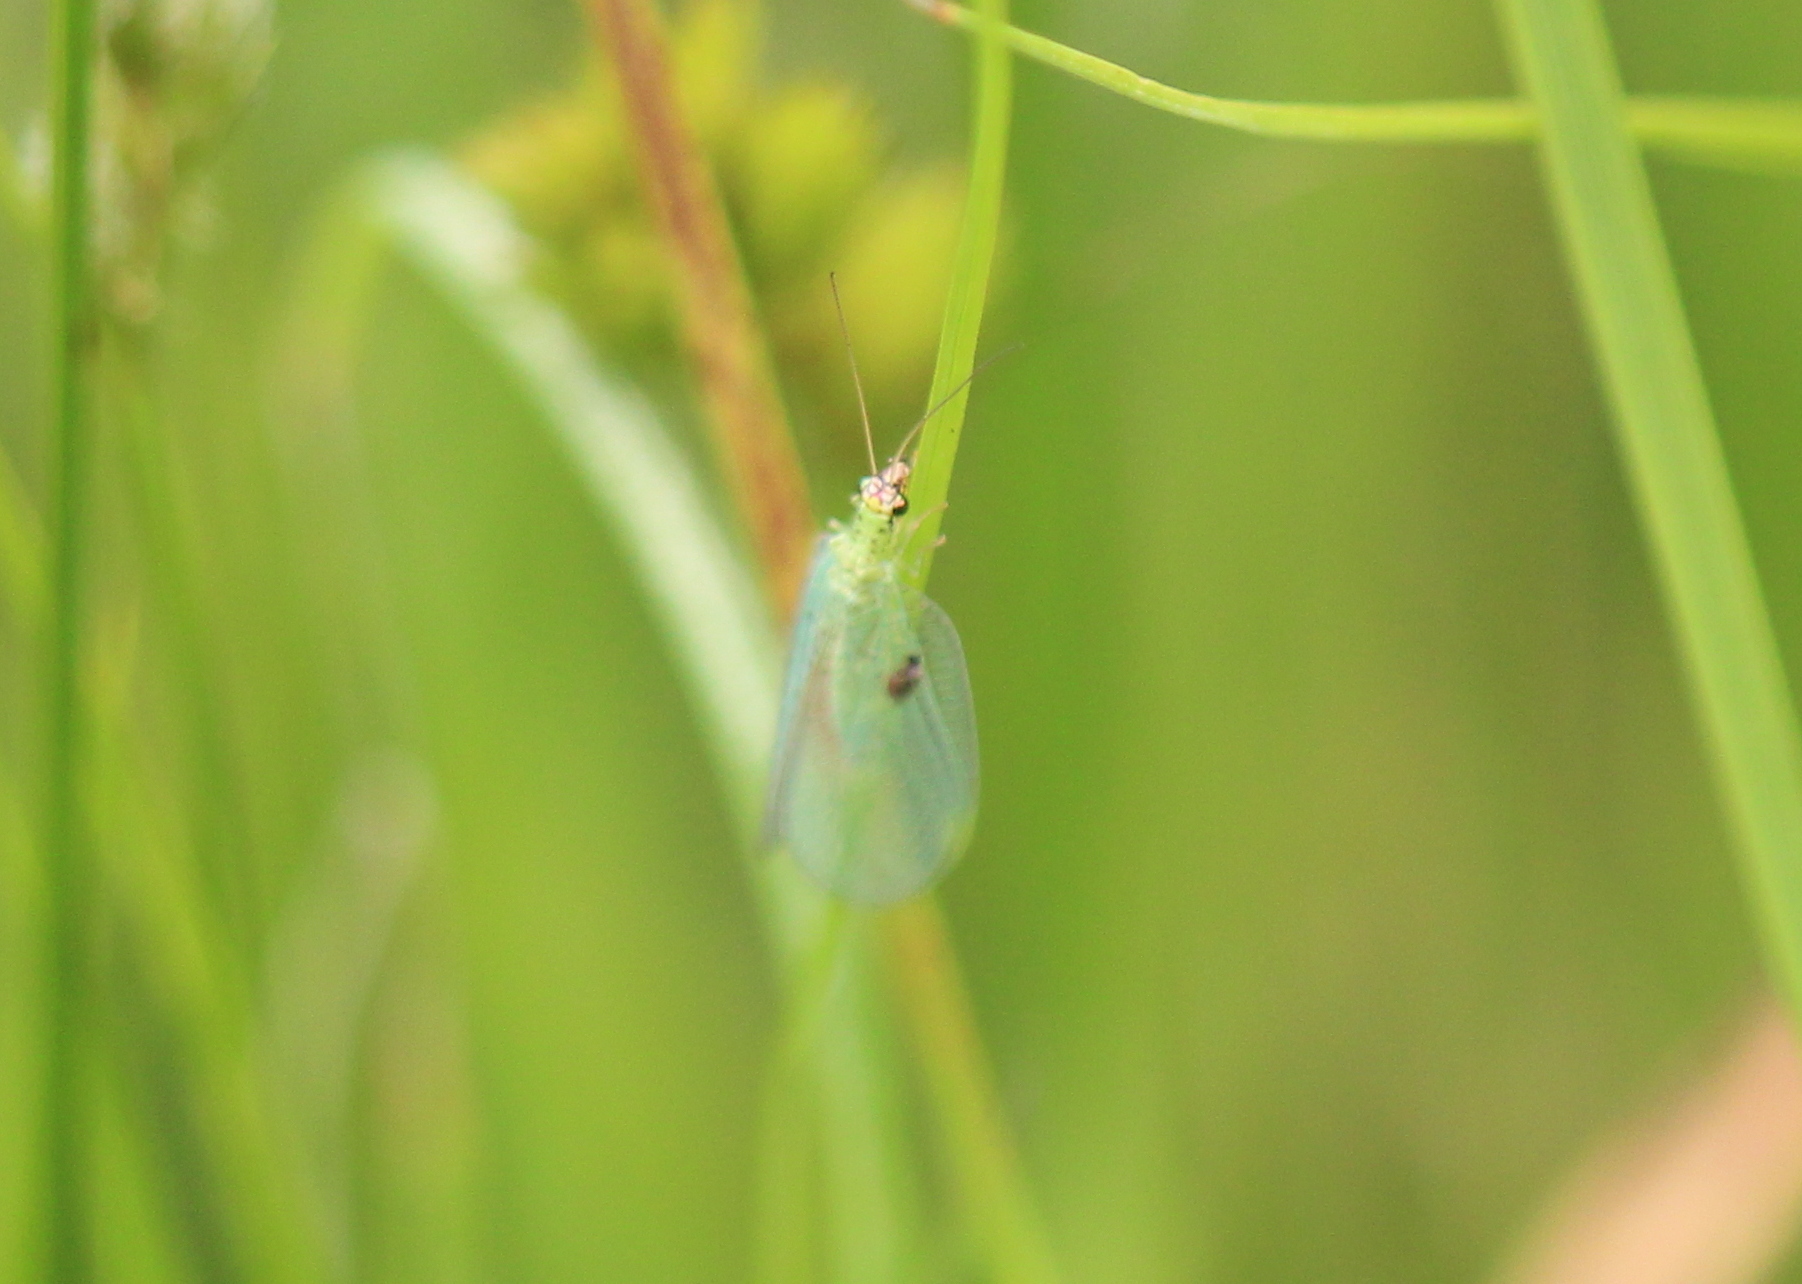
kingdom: Animalia
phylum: Arthropoda
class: Insecta
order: Neuroptera
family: Chrysopidae
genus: Chrysopa
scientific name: Chrysopa oculata
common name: Golden-eyed lacewing
